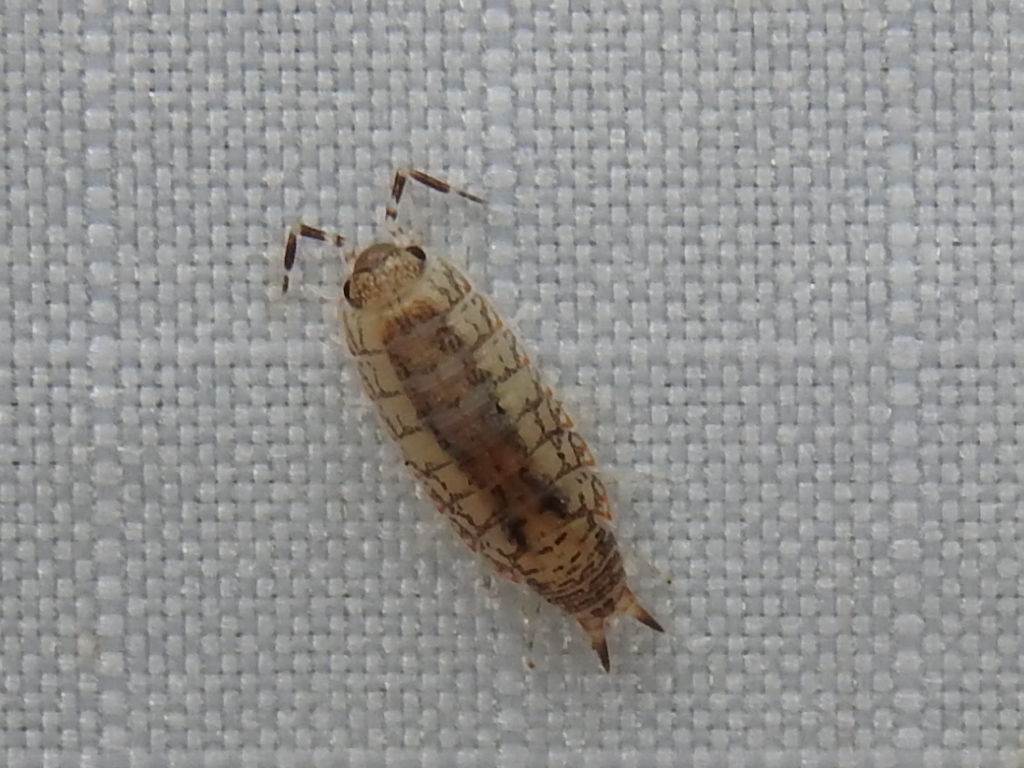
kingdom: Animalia
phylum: Arthropoda
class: Malacostraca
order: Isopoda
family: Rhyscotidae
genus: Rhyscotus
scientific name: Rhyscotus texensis
